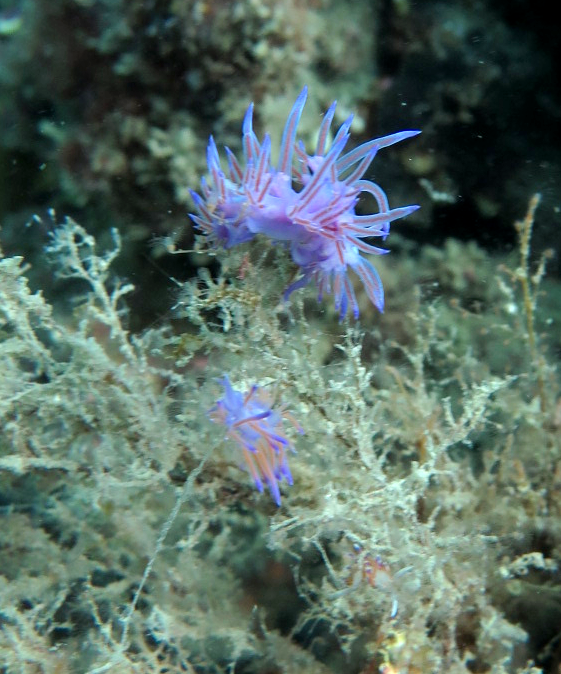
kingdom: Animalia
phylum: Mollusca
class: Gastropoda
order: Nudibranchia
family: Flabellinidae
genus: Flabellina
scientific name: Flabellina affinis
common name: Mediterranean violet aeolid
